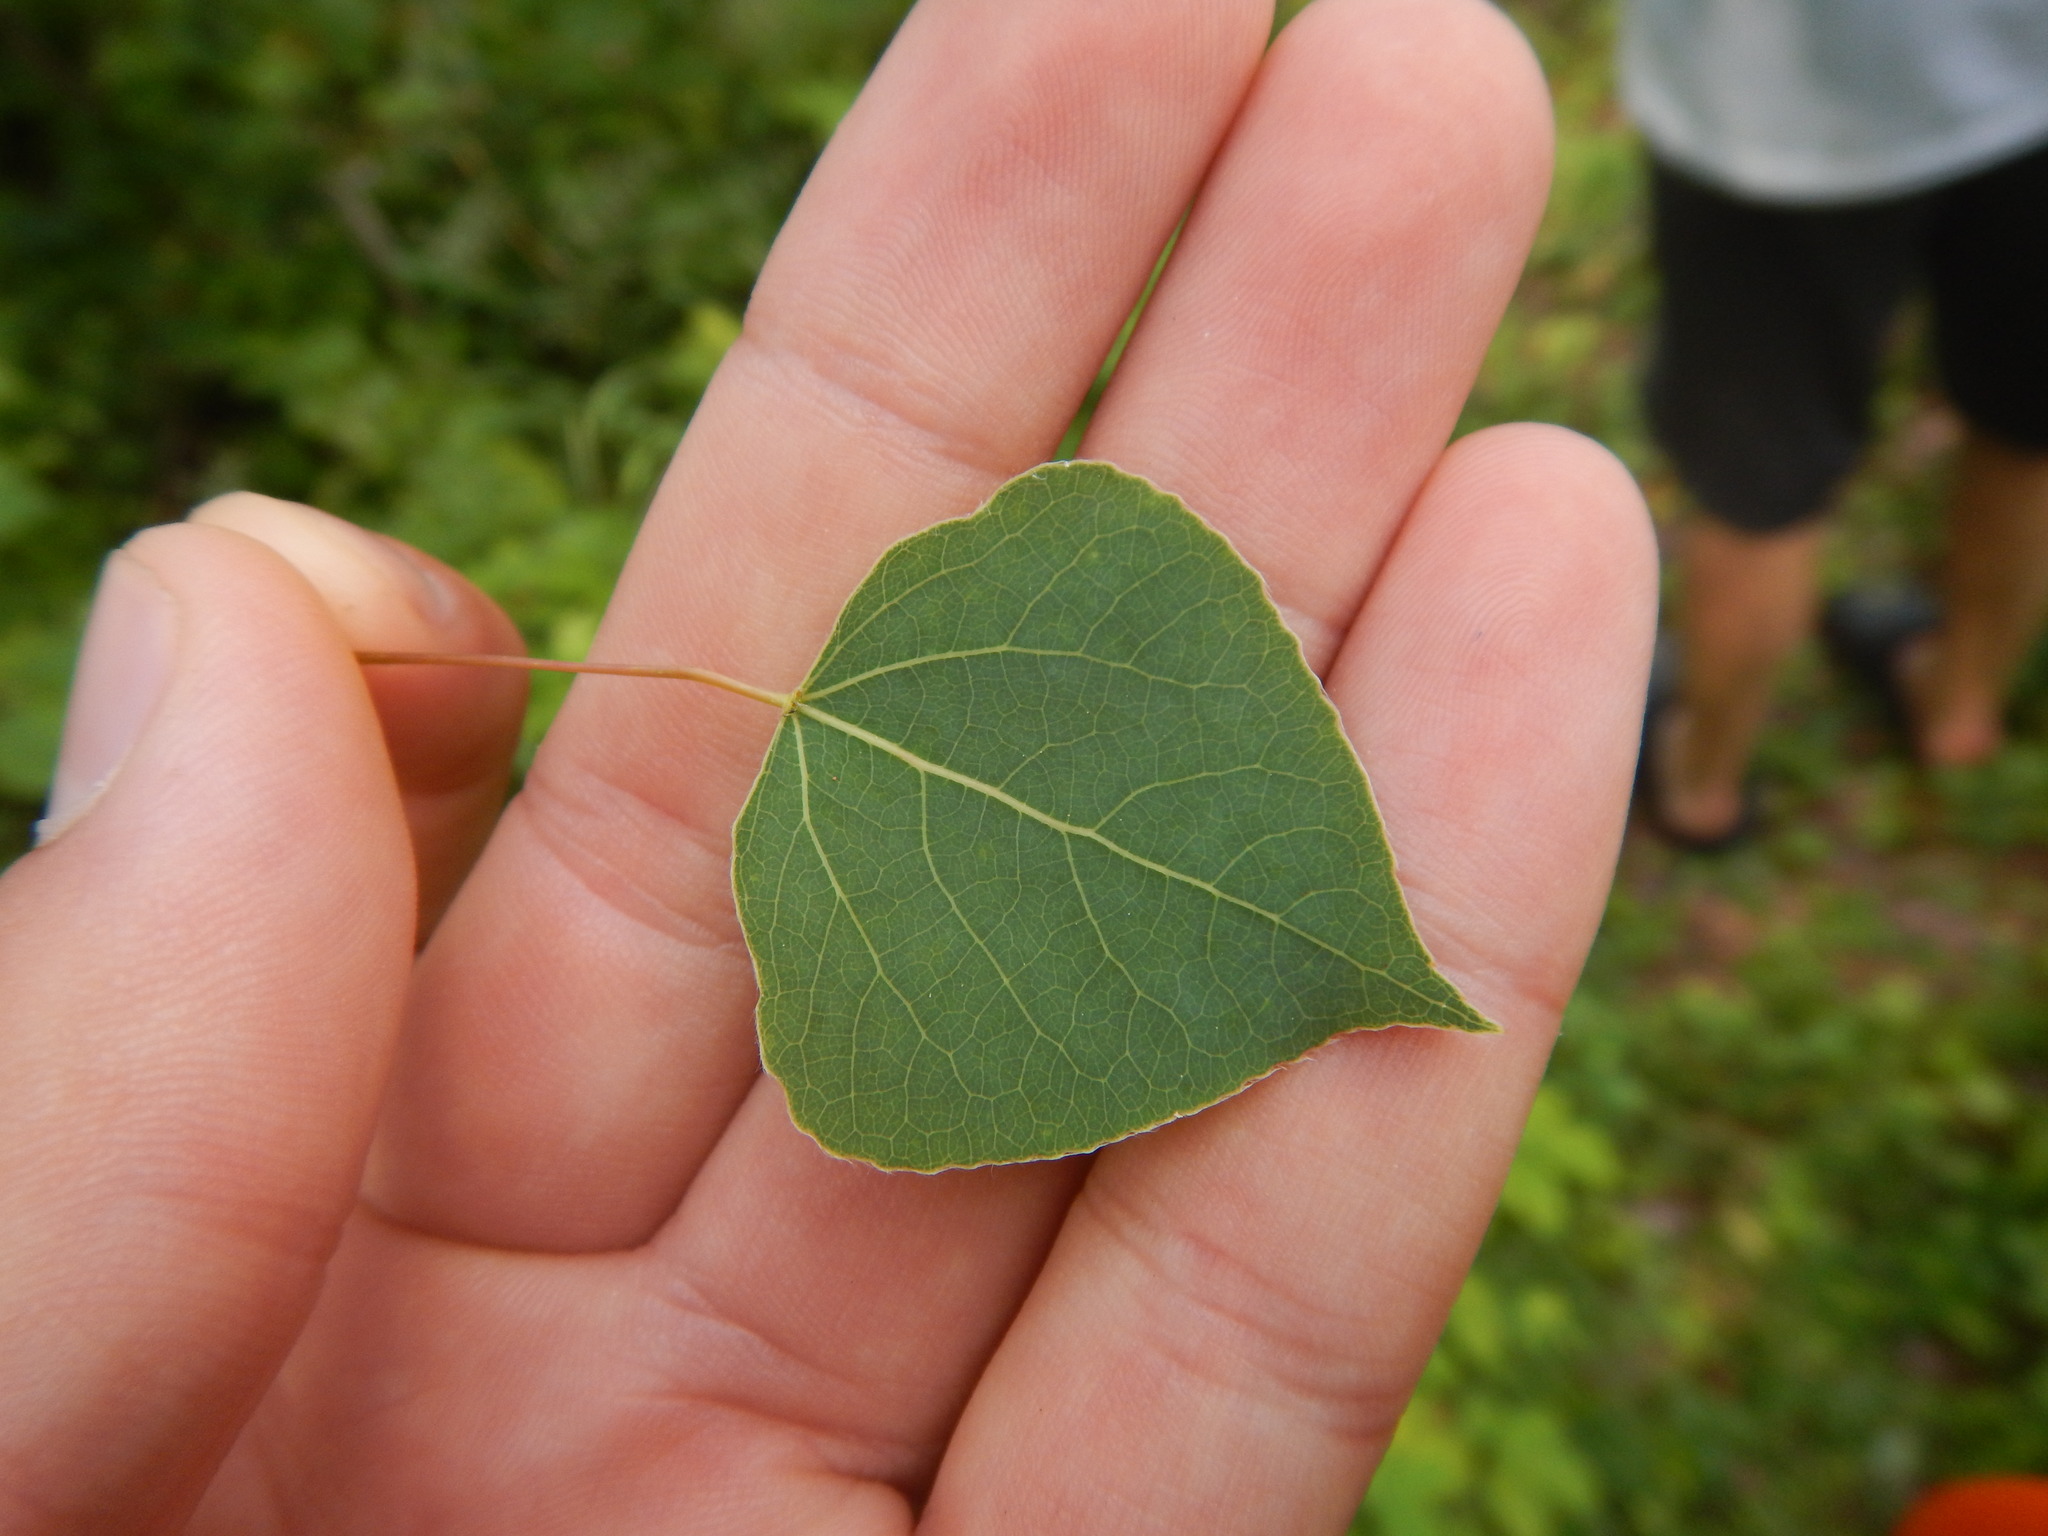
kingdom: Plantae
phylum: Tracheophyta
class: Magnoliopsida
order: Malpighiales
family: Salicaceae
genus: Populus
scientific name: Populus tremuloides
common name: Quaking aspen
